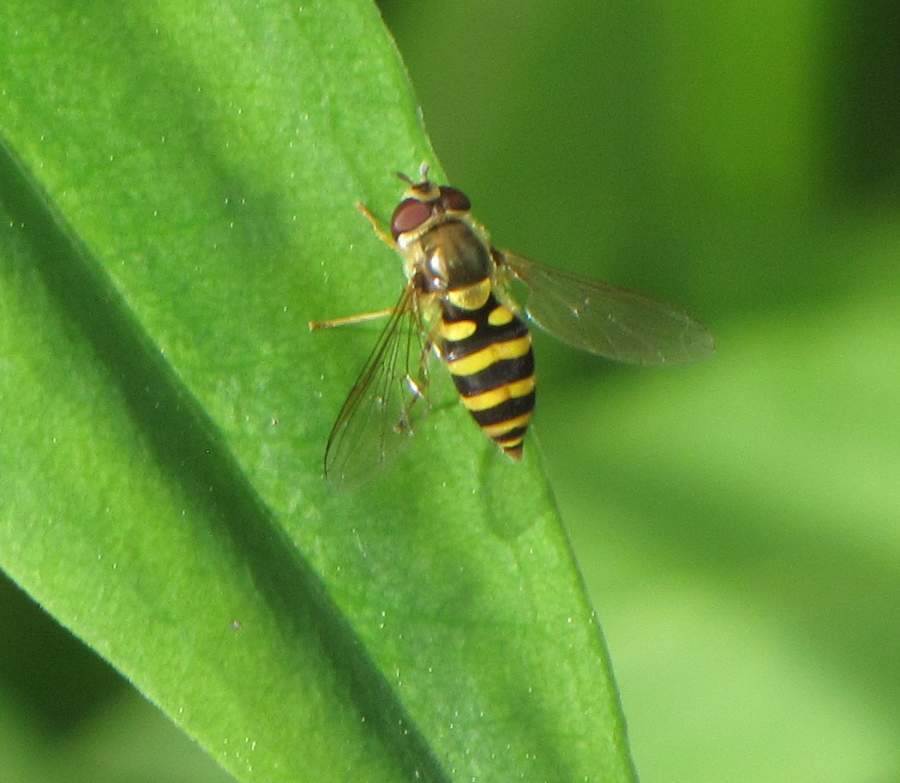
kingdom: Animalia
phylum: Arthropoda
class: Insecta
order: Diptera
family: Syrphidae
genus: Syrphus
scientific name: Syrphus
